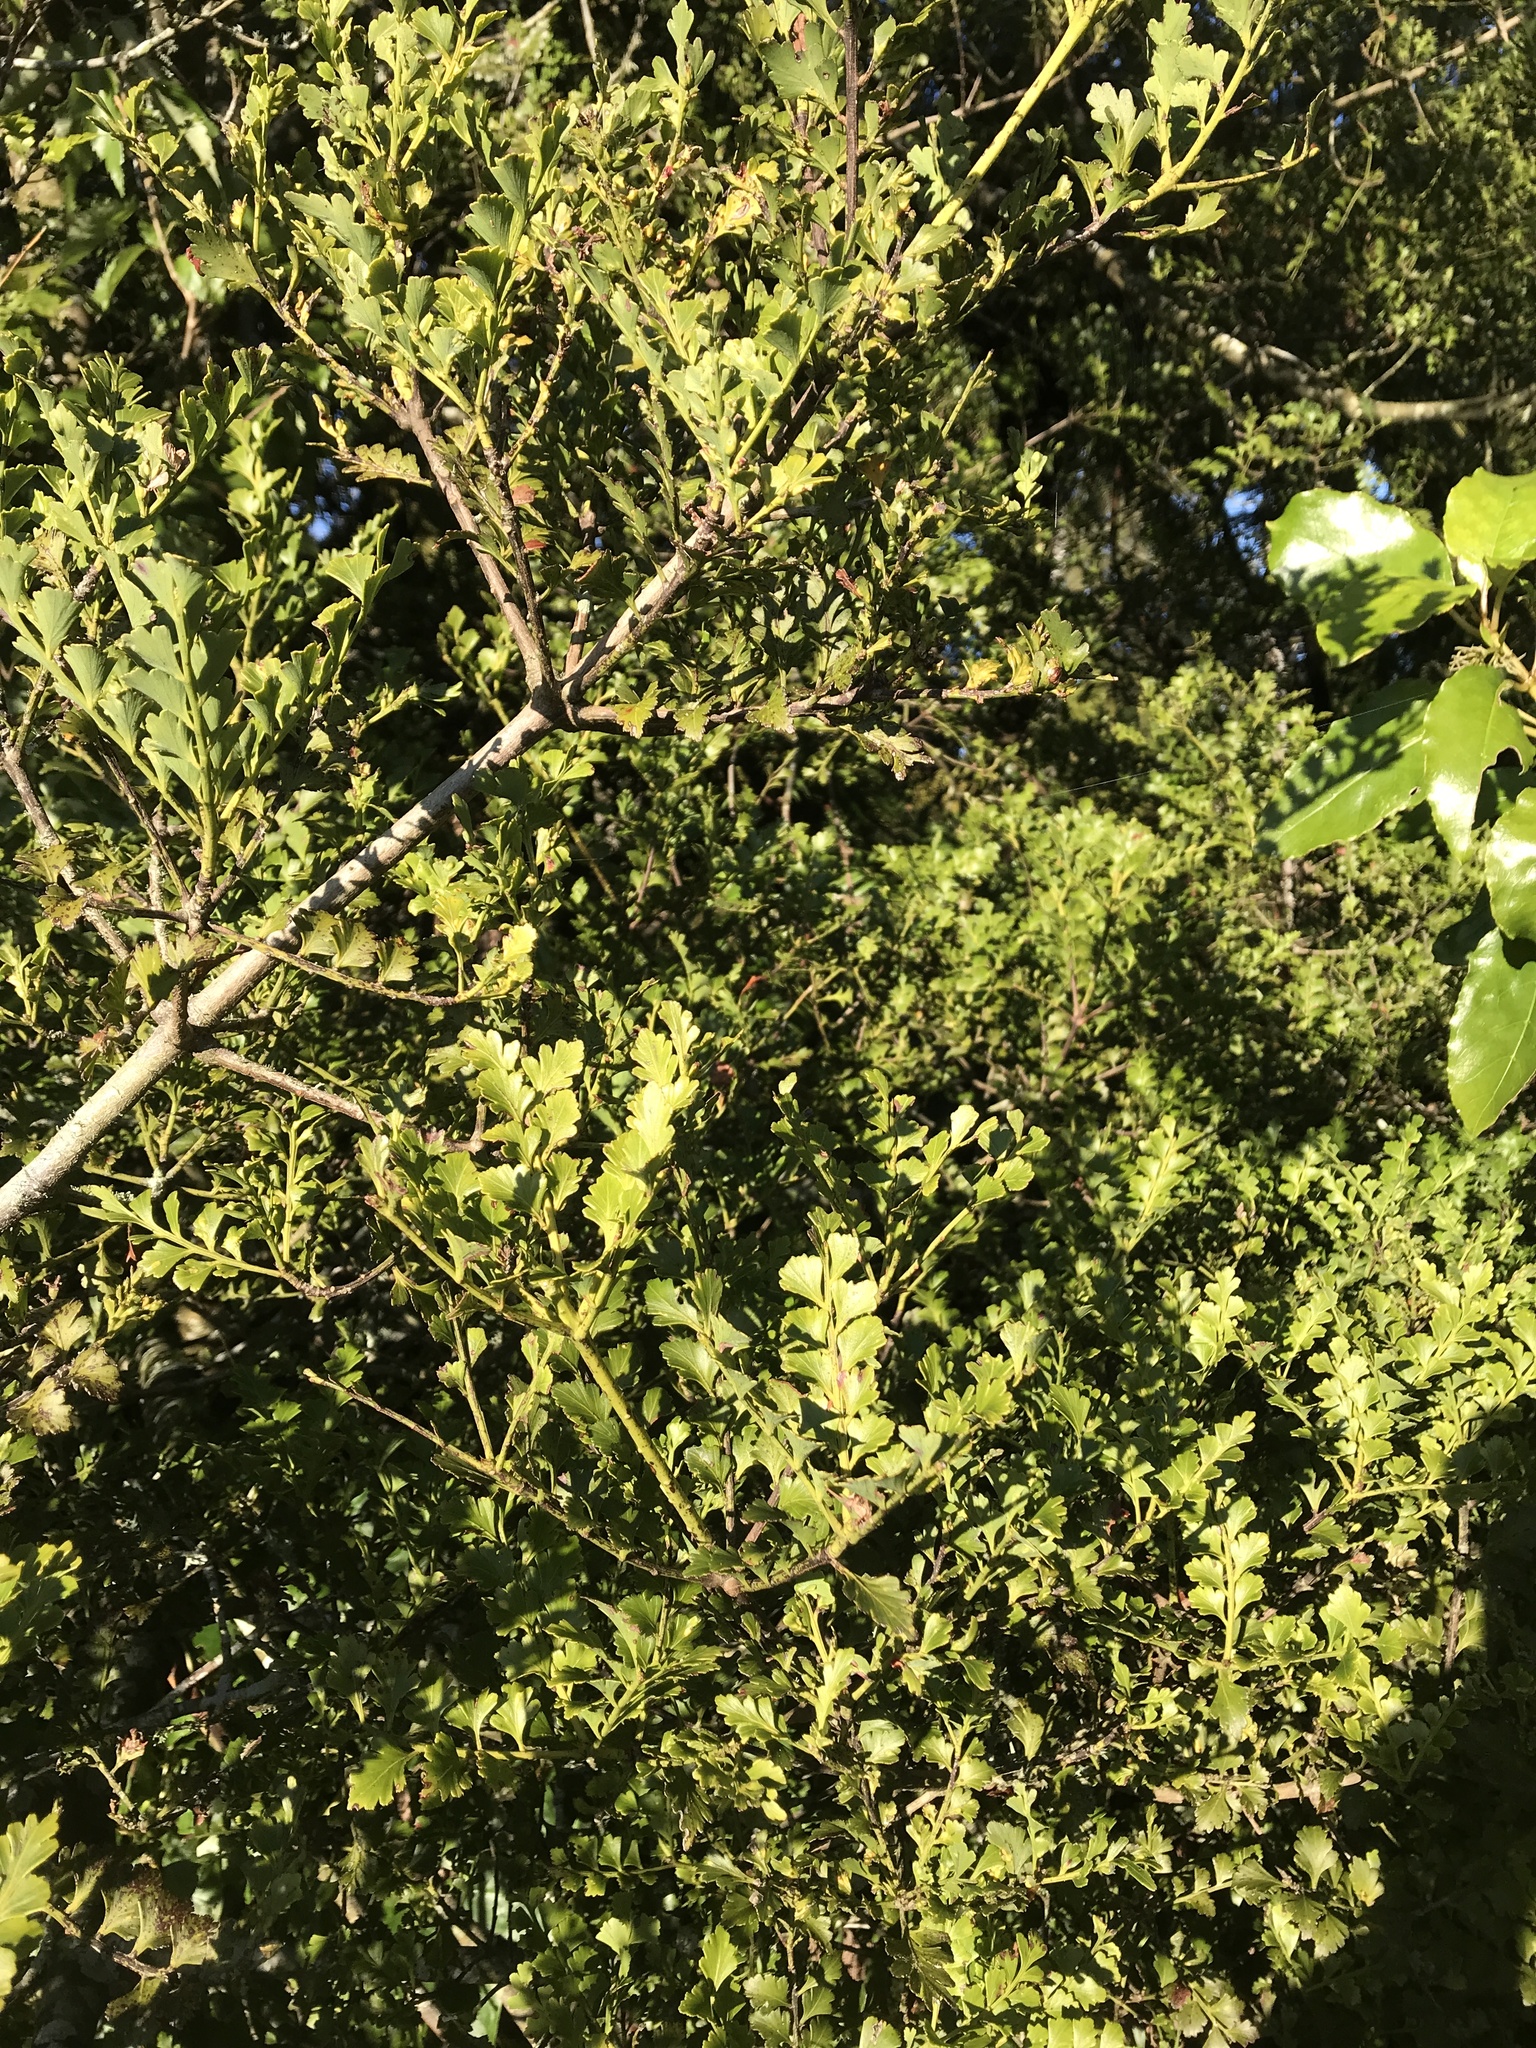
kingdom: Plantae
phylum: Tracheophyta
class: Pinopsida
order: Pinales
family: Phyllocladaceae
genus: Phyllocladus
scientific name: Phyllocladus trichomanoides
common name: Celery pine
